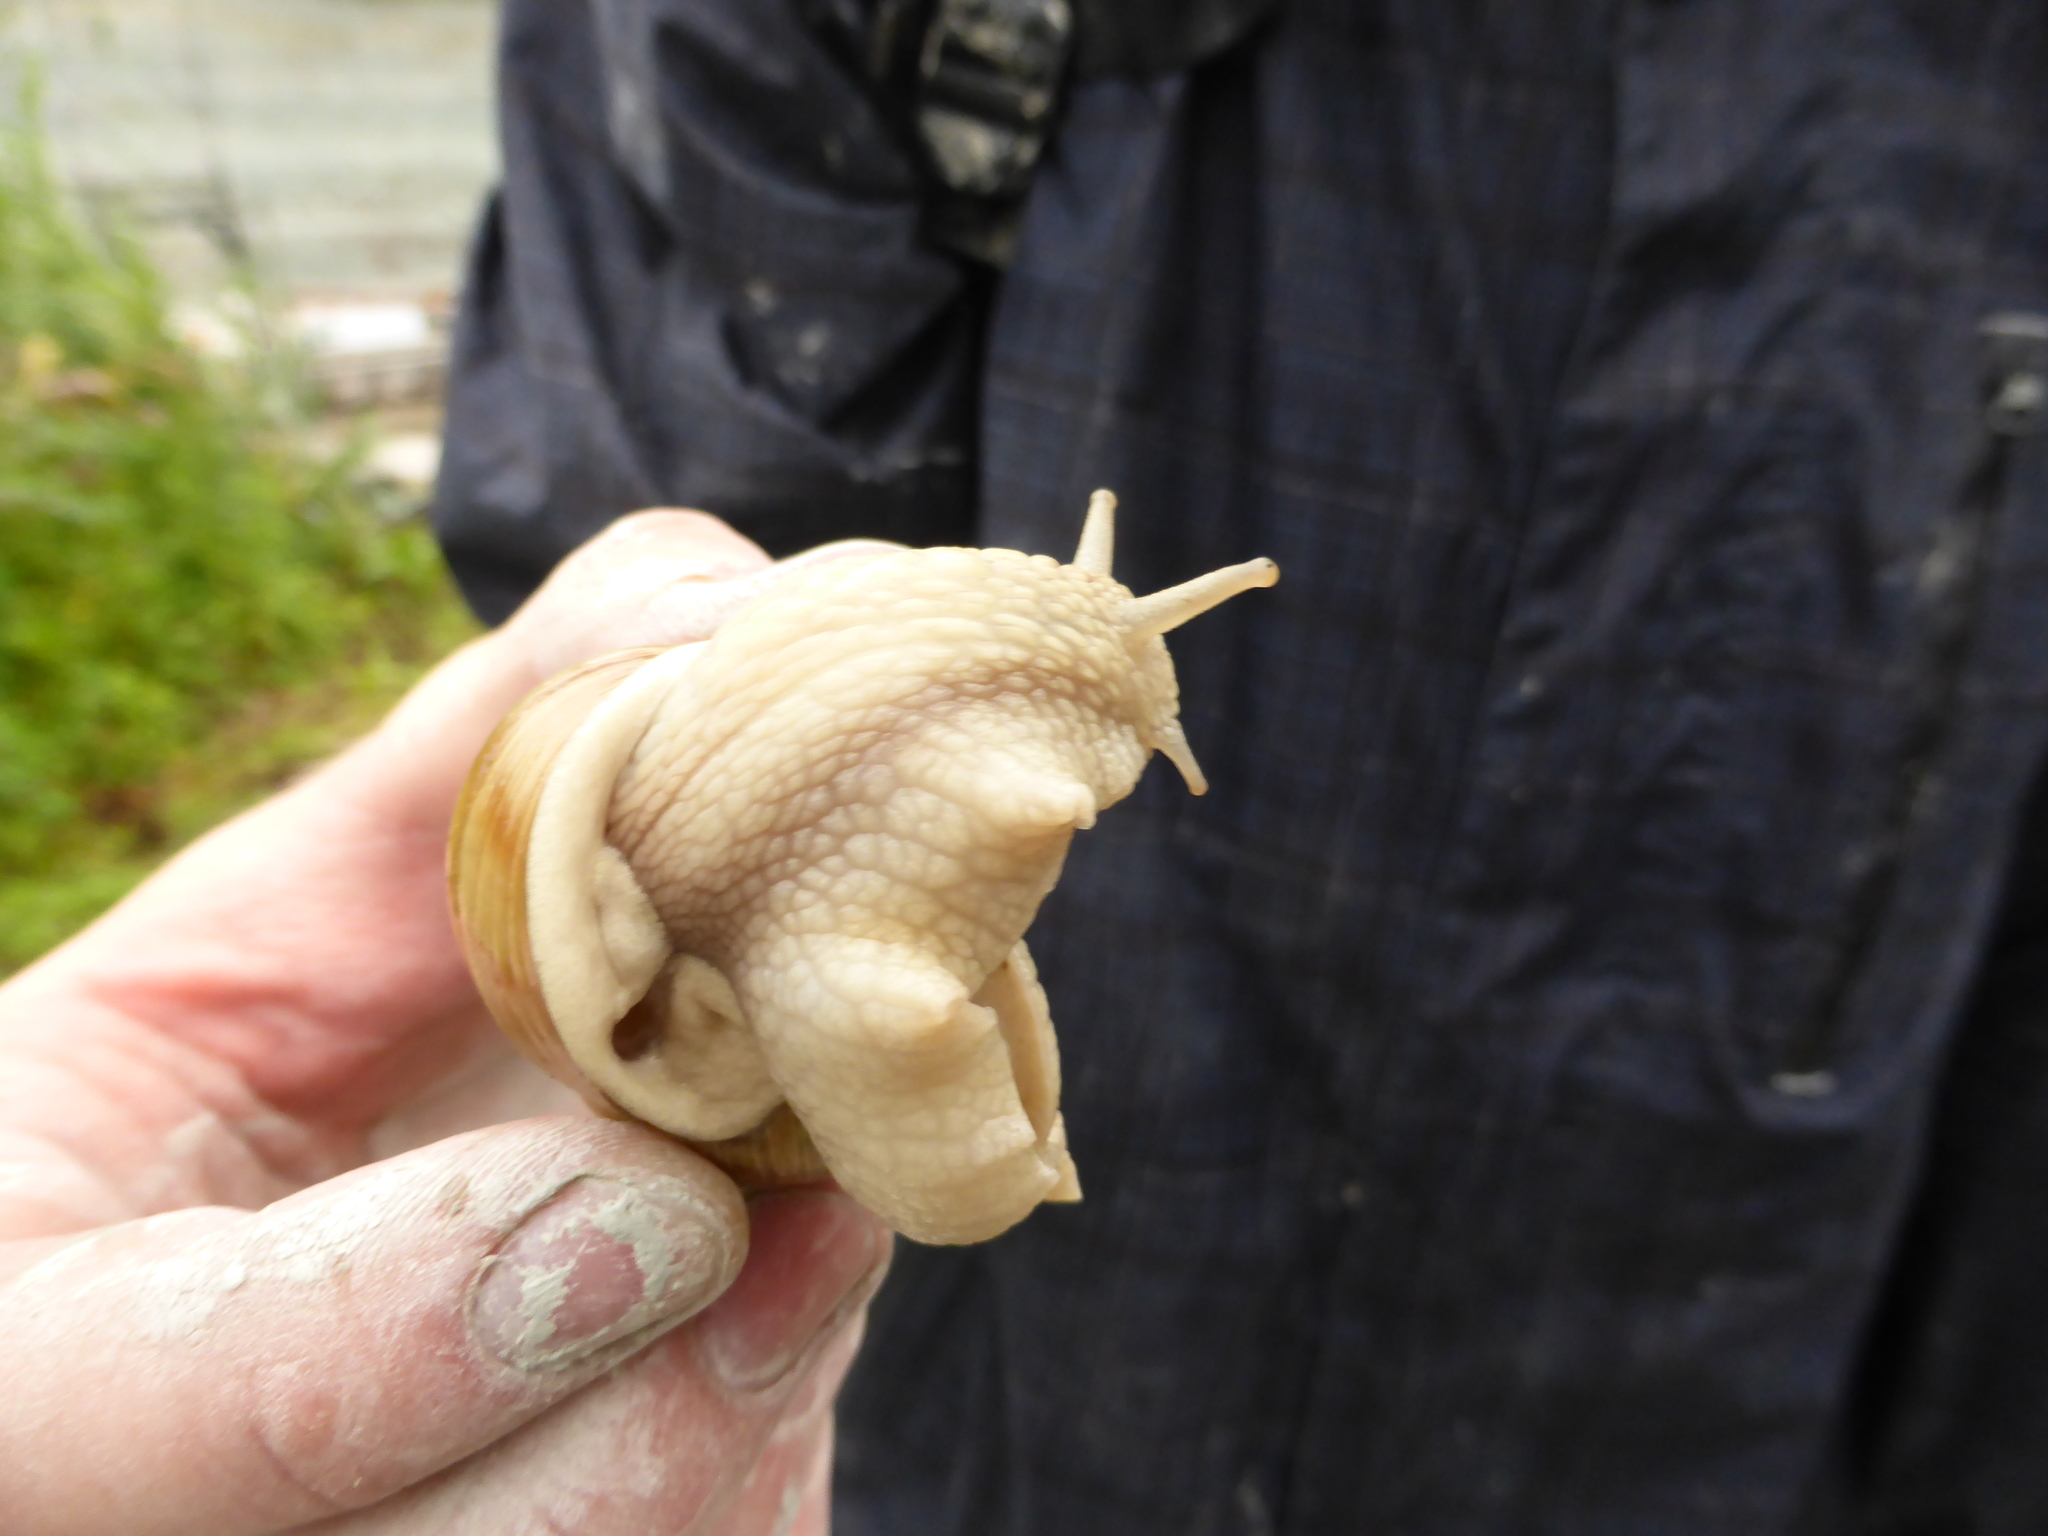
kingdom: Animalia
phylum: Mollusca
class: Gastropoda
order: Stylommatophora
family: Helicidae
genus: Helix
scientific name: Helix pomatia
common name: Roman snail
